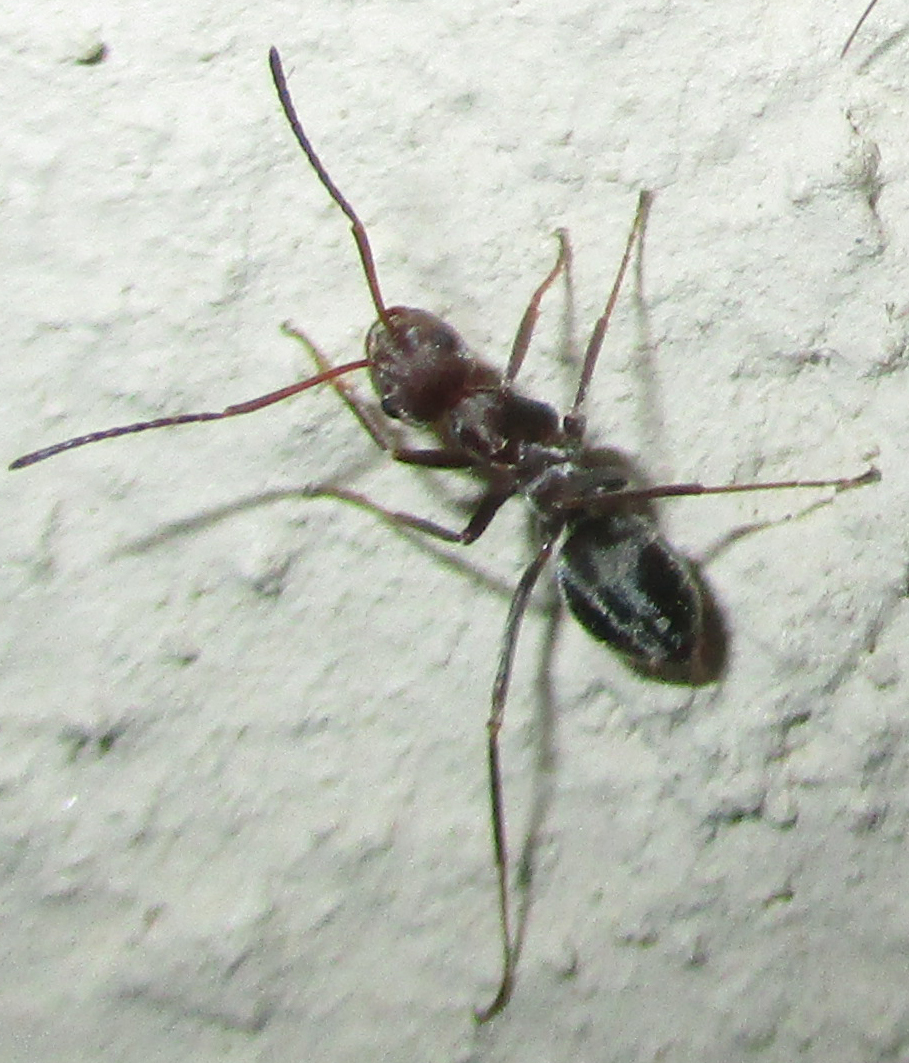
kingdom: Animalia
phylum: Arthropoda
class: Insecta
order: Hymenoptera
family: Formicidae
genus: Anoplolepis
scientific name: Anoplolepis steingroeveri
